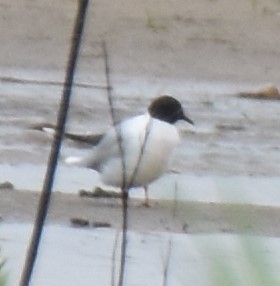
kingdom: Animalia
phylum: Chordata
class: Aves
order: Charadriiformes
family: Laridae
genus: Hydrocoloeus
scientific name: Hydrocoloeus minutus
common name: Little gull
